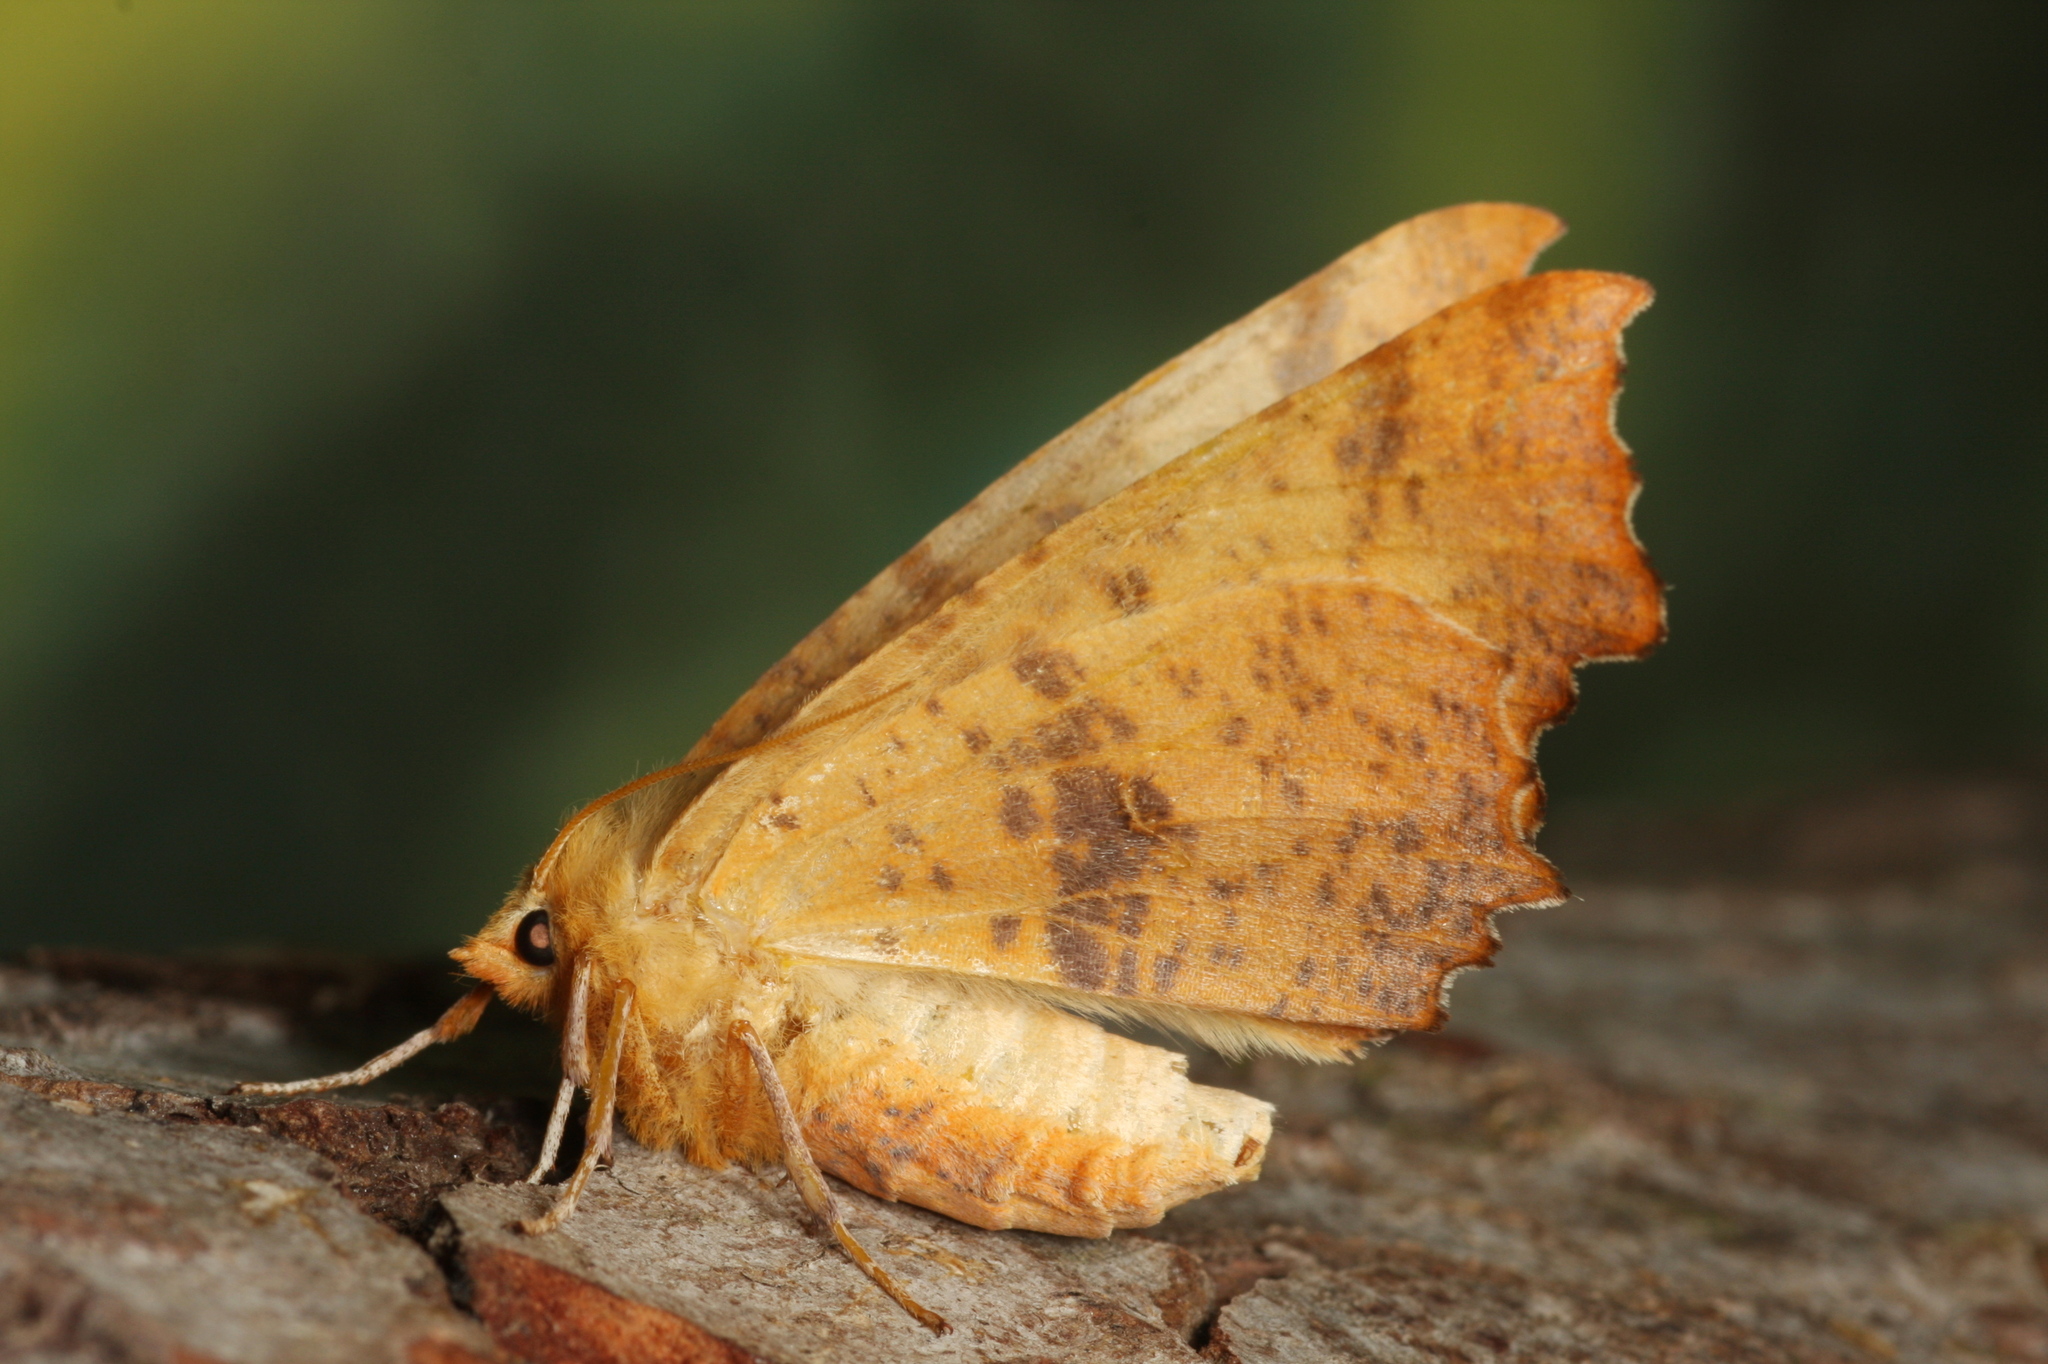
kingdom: Animalia
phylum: Arthropoda
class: Insecta
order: Lepidoptera
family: Geometridae
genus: Ennomos
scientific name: Ennomos autumnaria
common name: Large thorn
